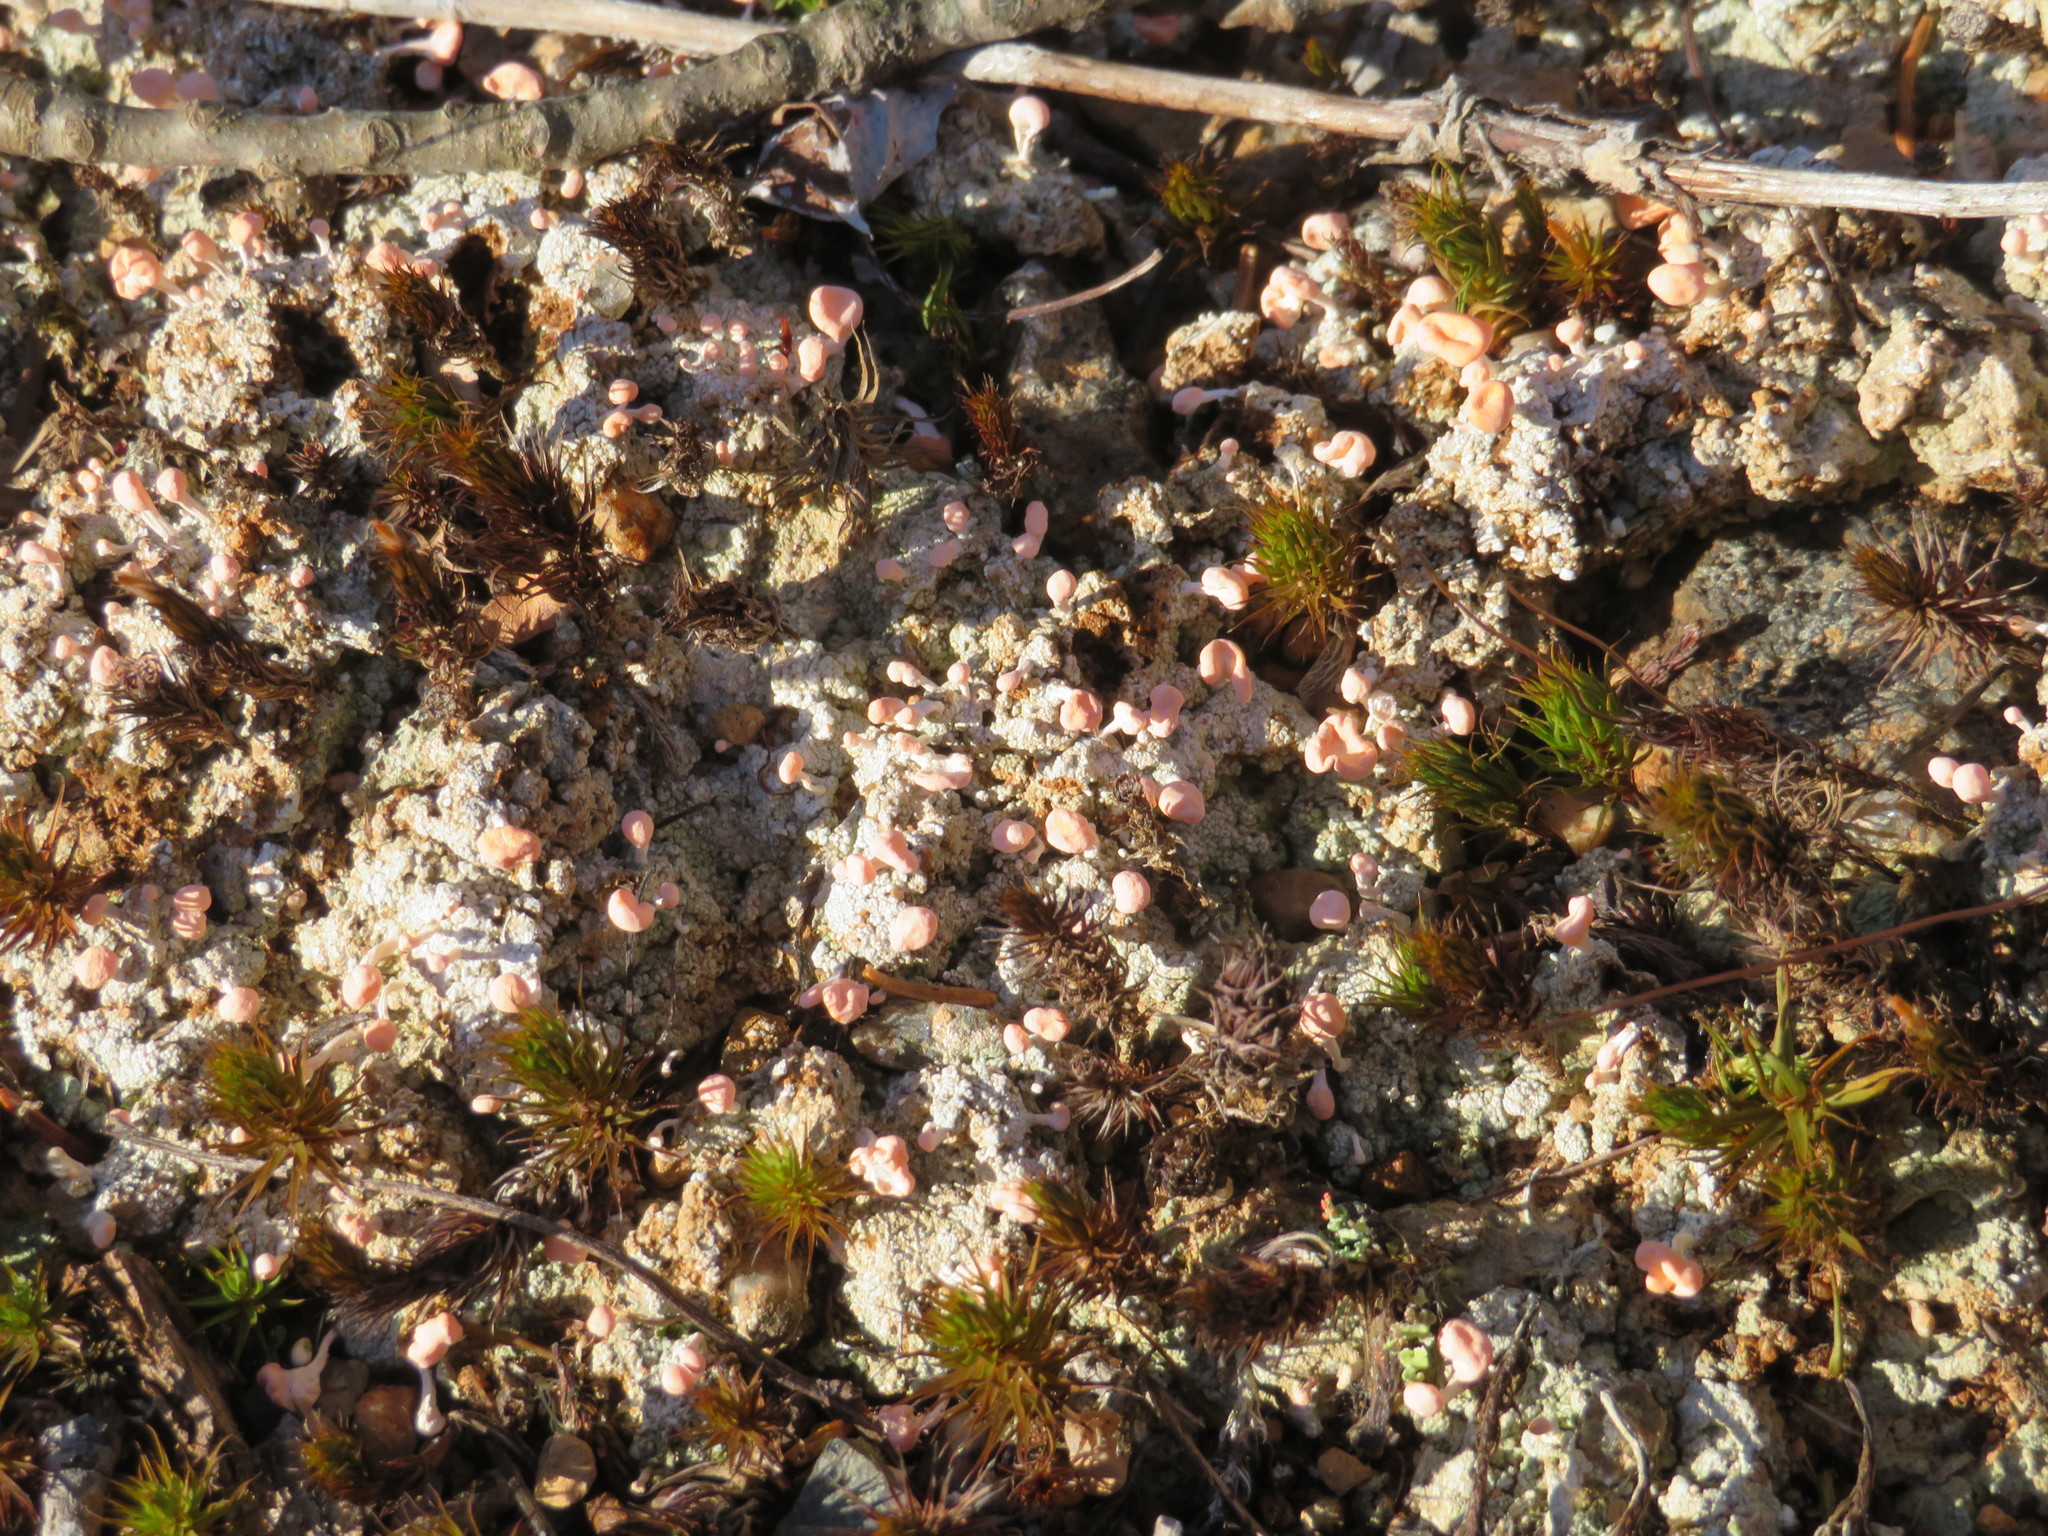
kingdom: Fungi
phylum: Ascomycota
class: Lecanoromycetes
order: Pertusariales
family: Icmadophilaceae
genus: Dibaeis
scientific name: Dibaeis baeomyces
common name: Pink earth lichen
